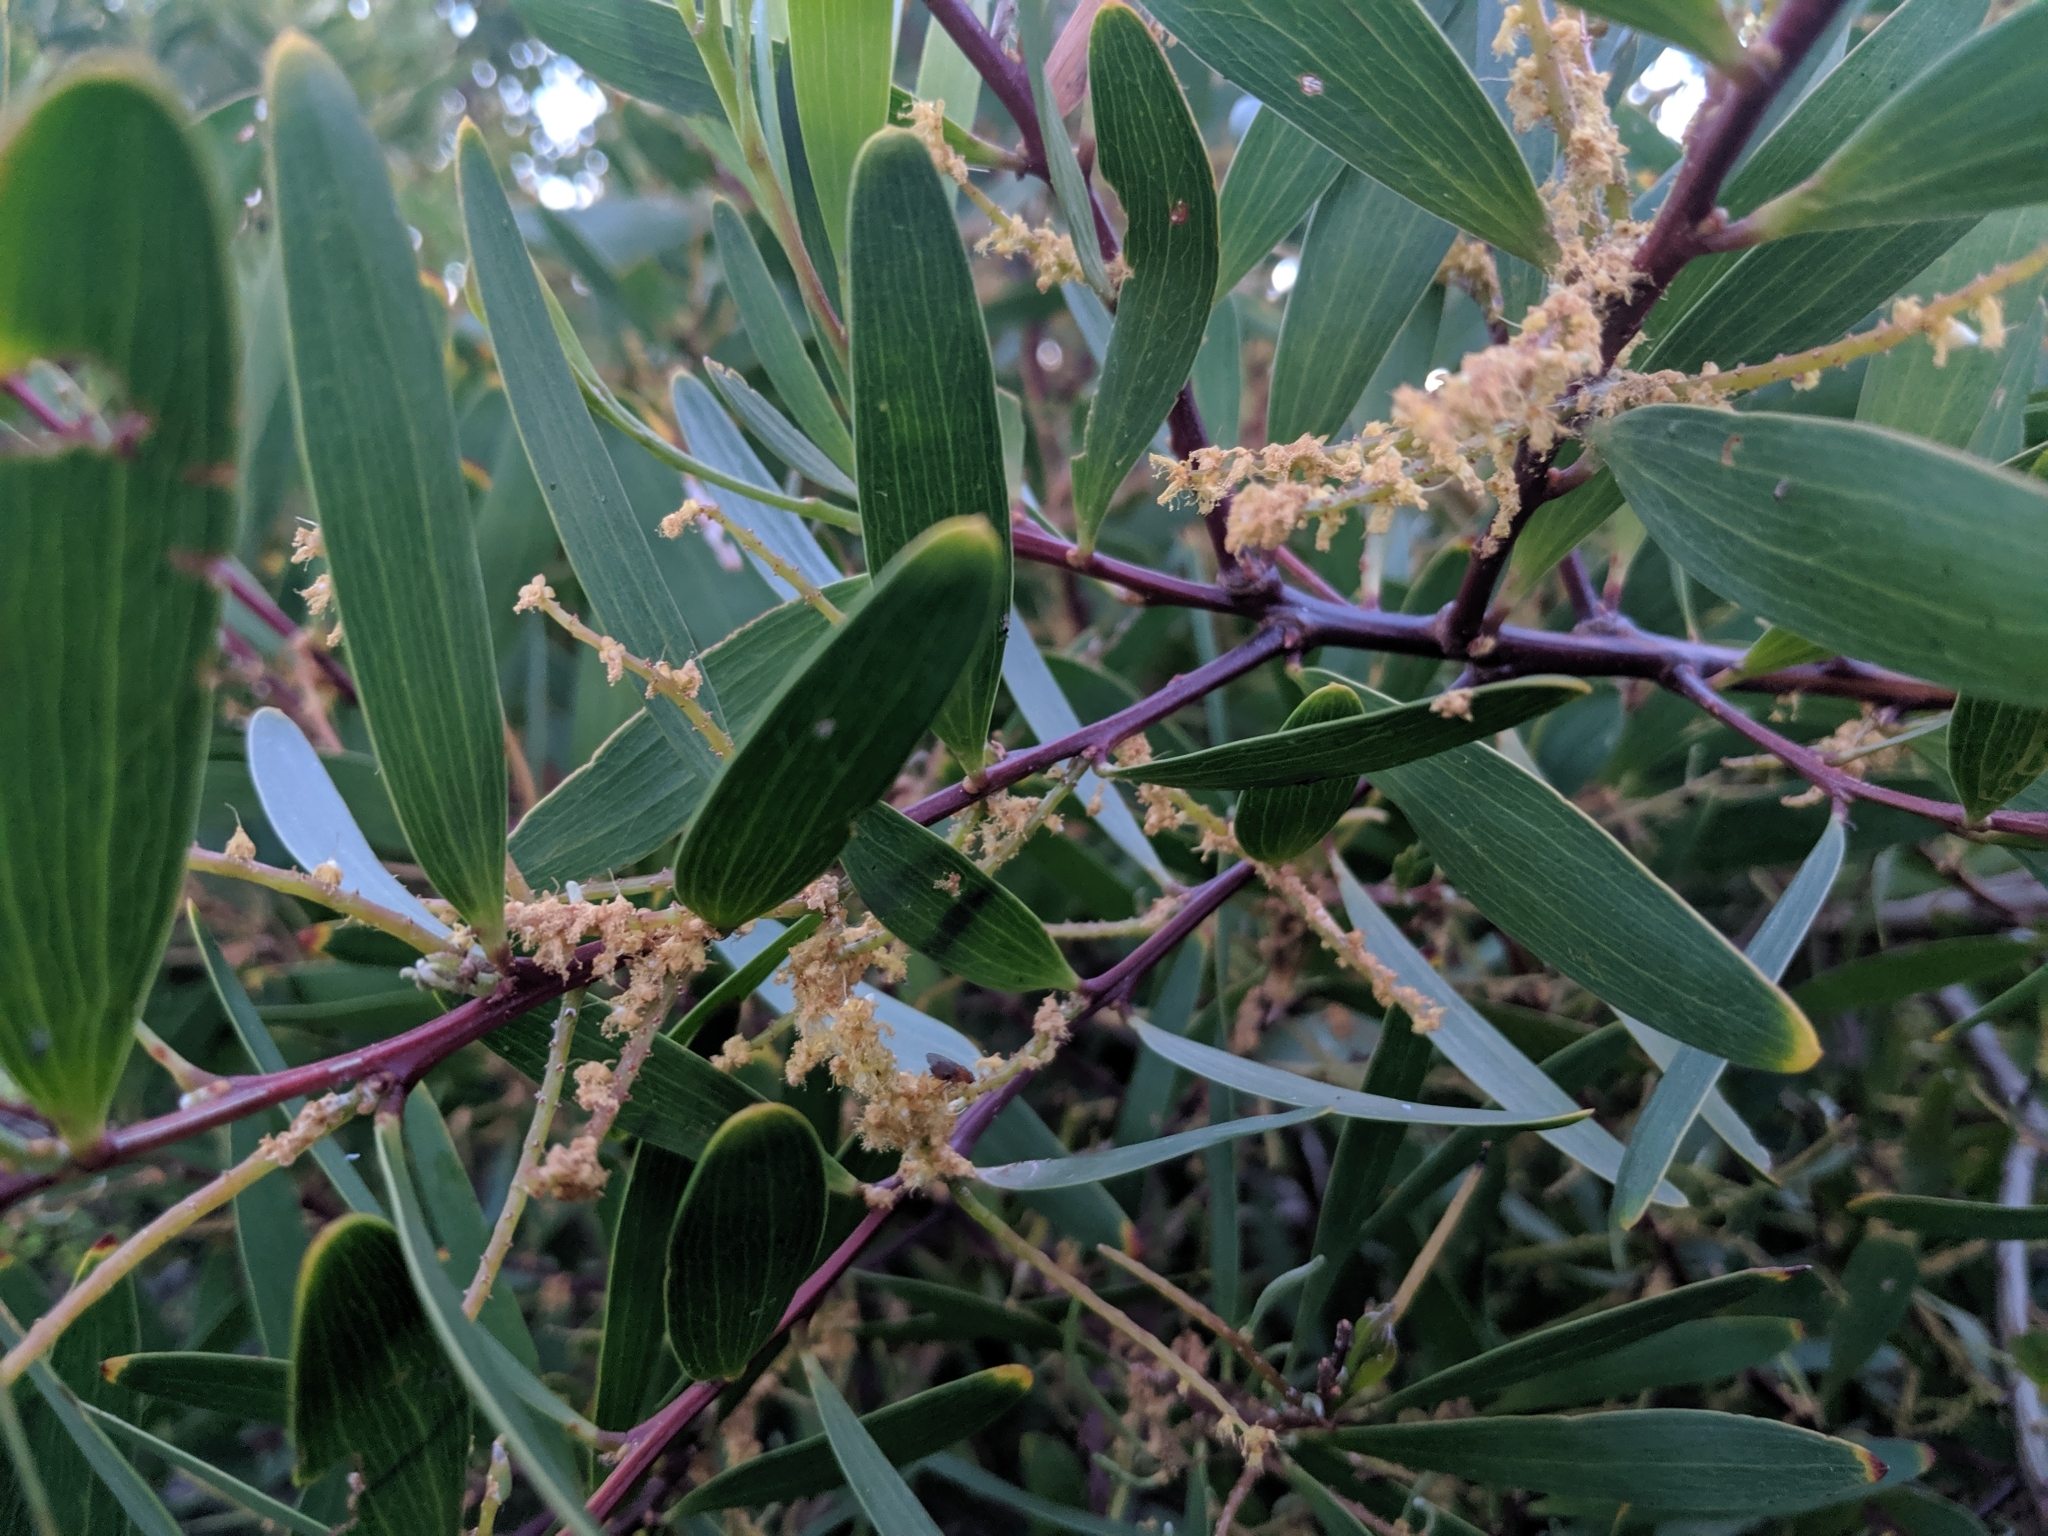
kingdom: Plantae
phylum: Tracheophyta
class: Magnoliopsida
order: Fabales
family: Fabaceae
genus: Acacia
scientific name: Acacia longifolia
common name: Sydney golden wattle
